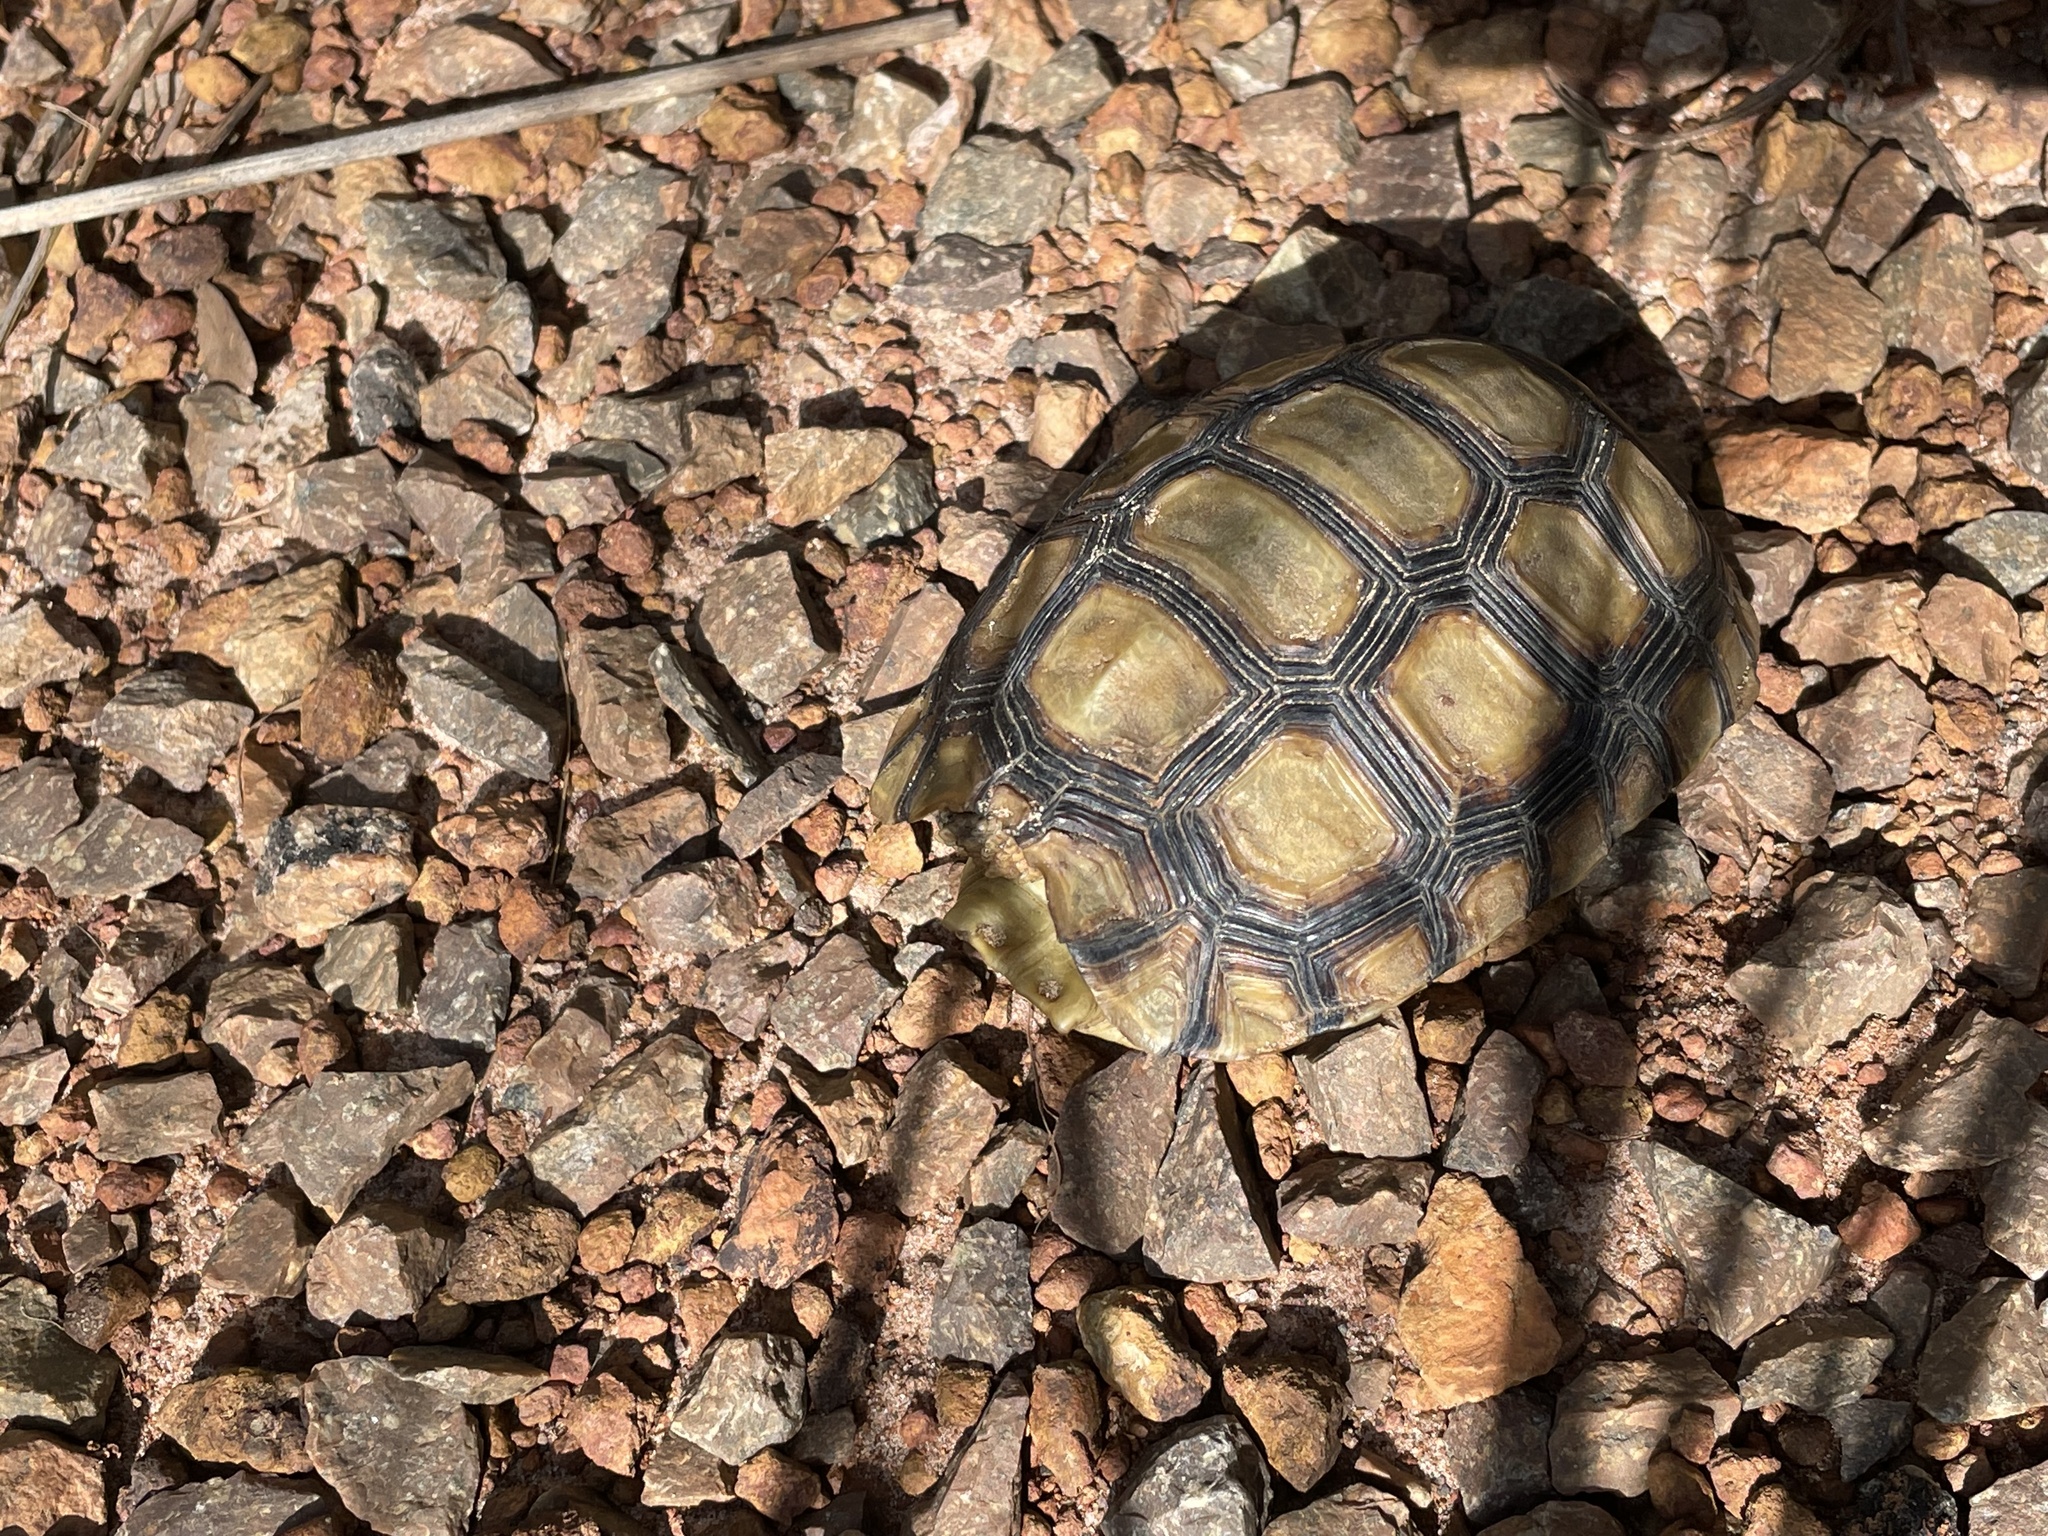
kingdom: Animalia
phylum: Chordata
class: Testudines
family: Testudinidae
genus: Kinixys
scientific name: Kinixys belliana
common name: Bells hinge-back tortoise
